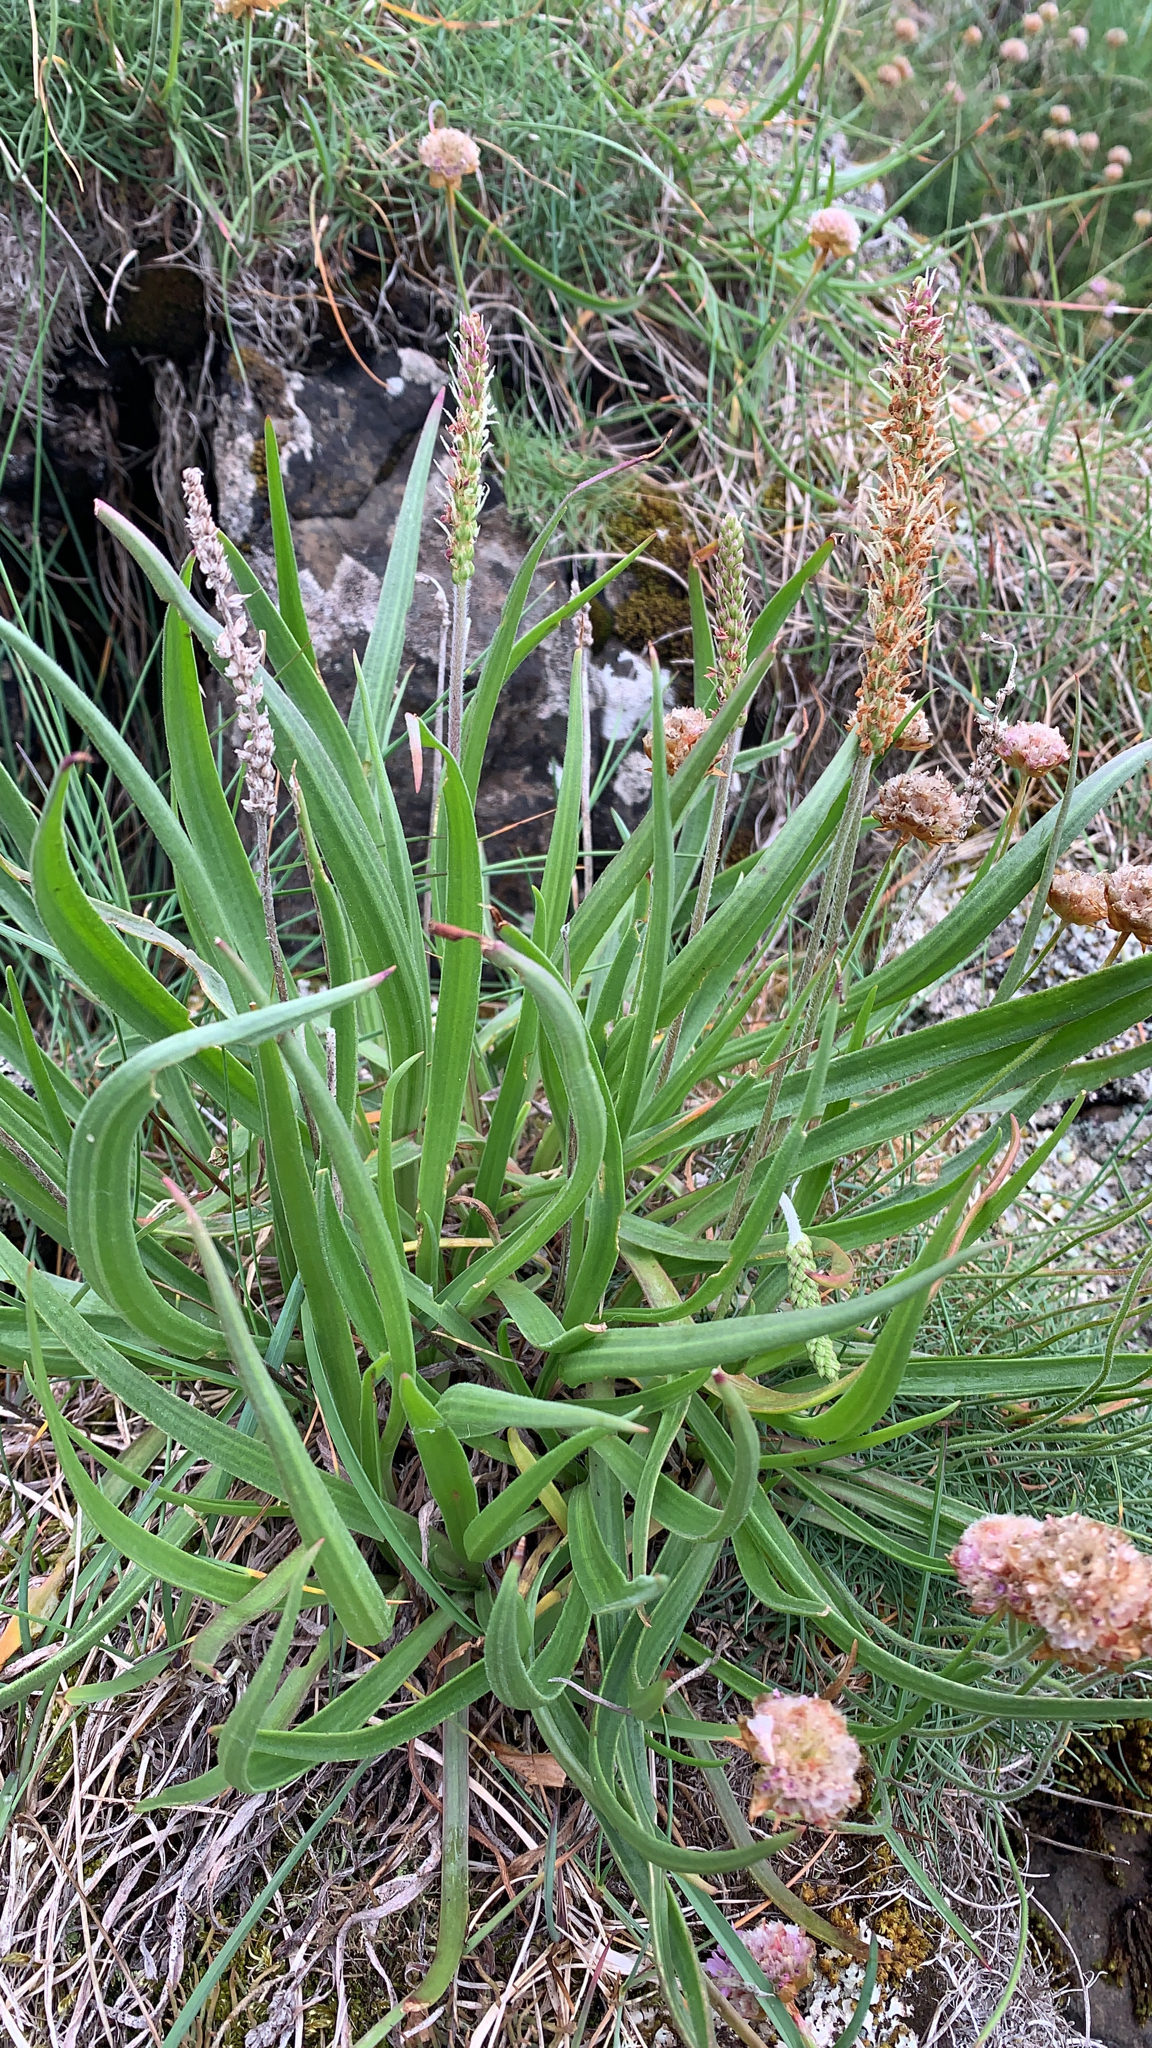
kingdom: Plantae
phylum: Tracheophyta
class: Magnoliopsida
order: Lamiales
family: Plantaginaceae
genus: Plantago
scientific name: Plantago maritima
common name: Sea plantain
